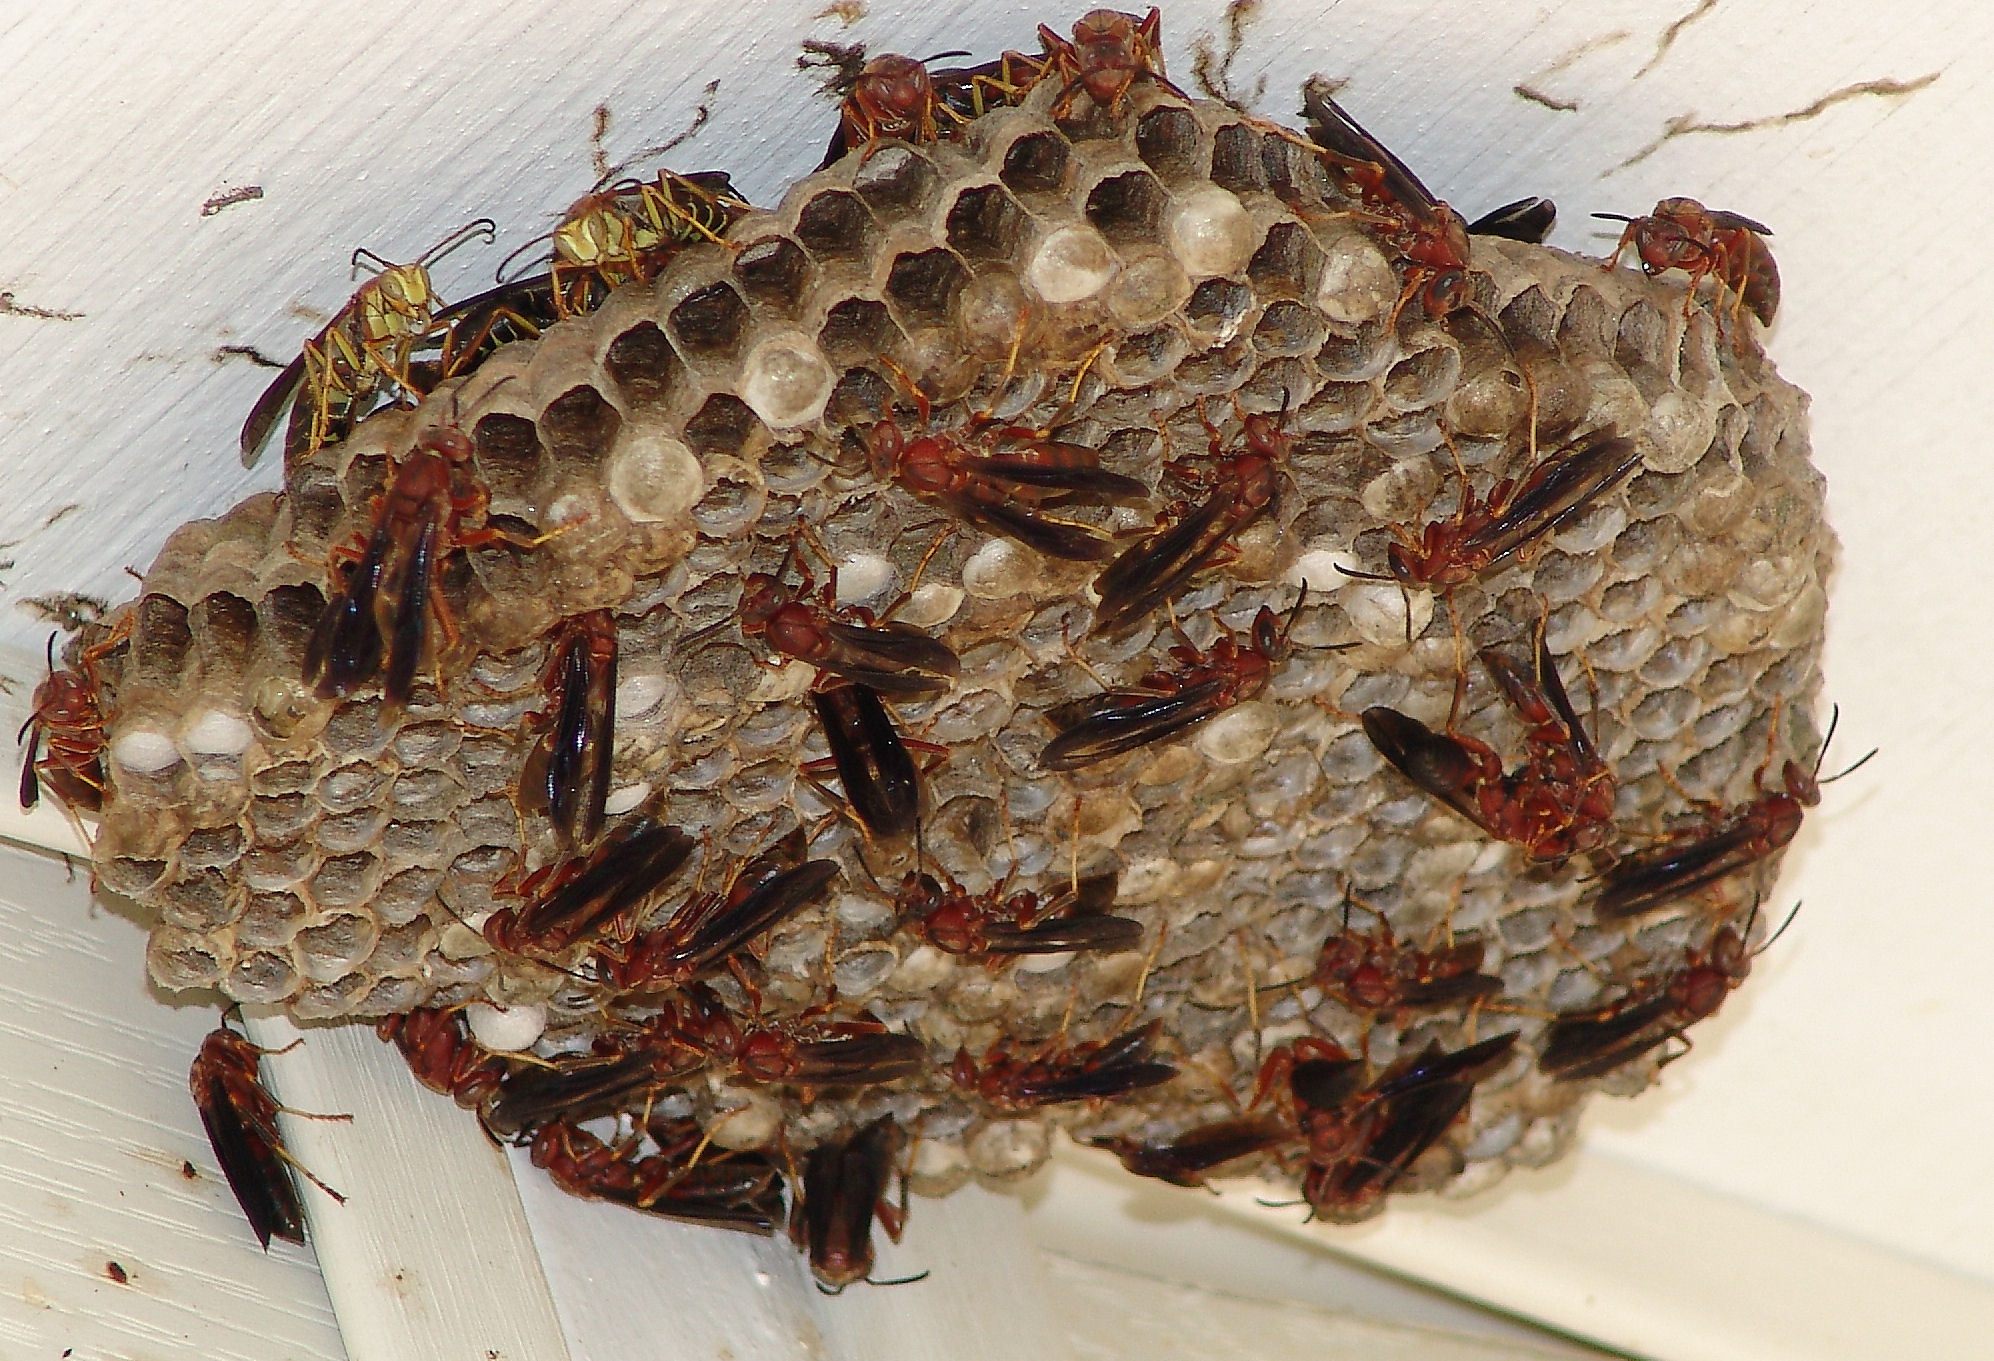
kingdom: Animalia
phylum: Arthropoda
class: Insecta
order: Hymenoptera
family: Eumenidae
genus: Polistes
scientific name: Polistes fuscatus
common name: Dark paper wasp
